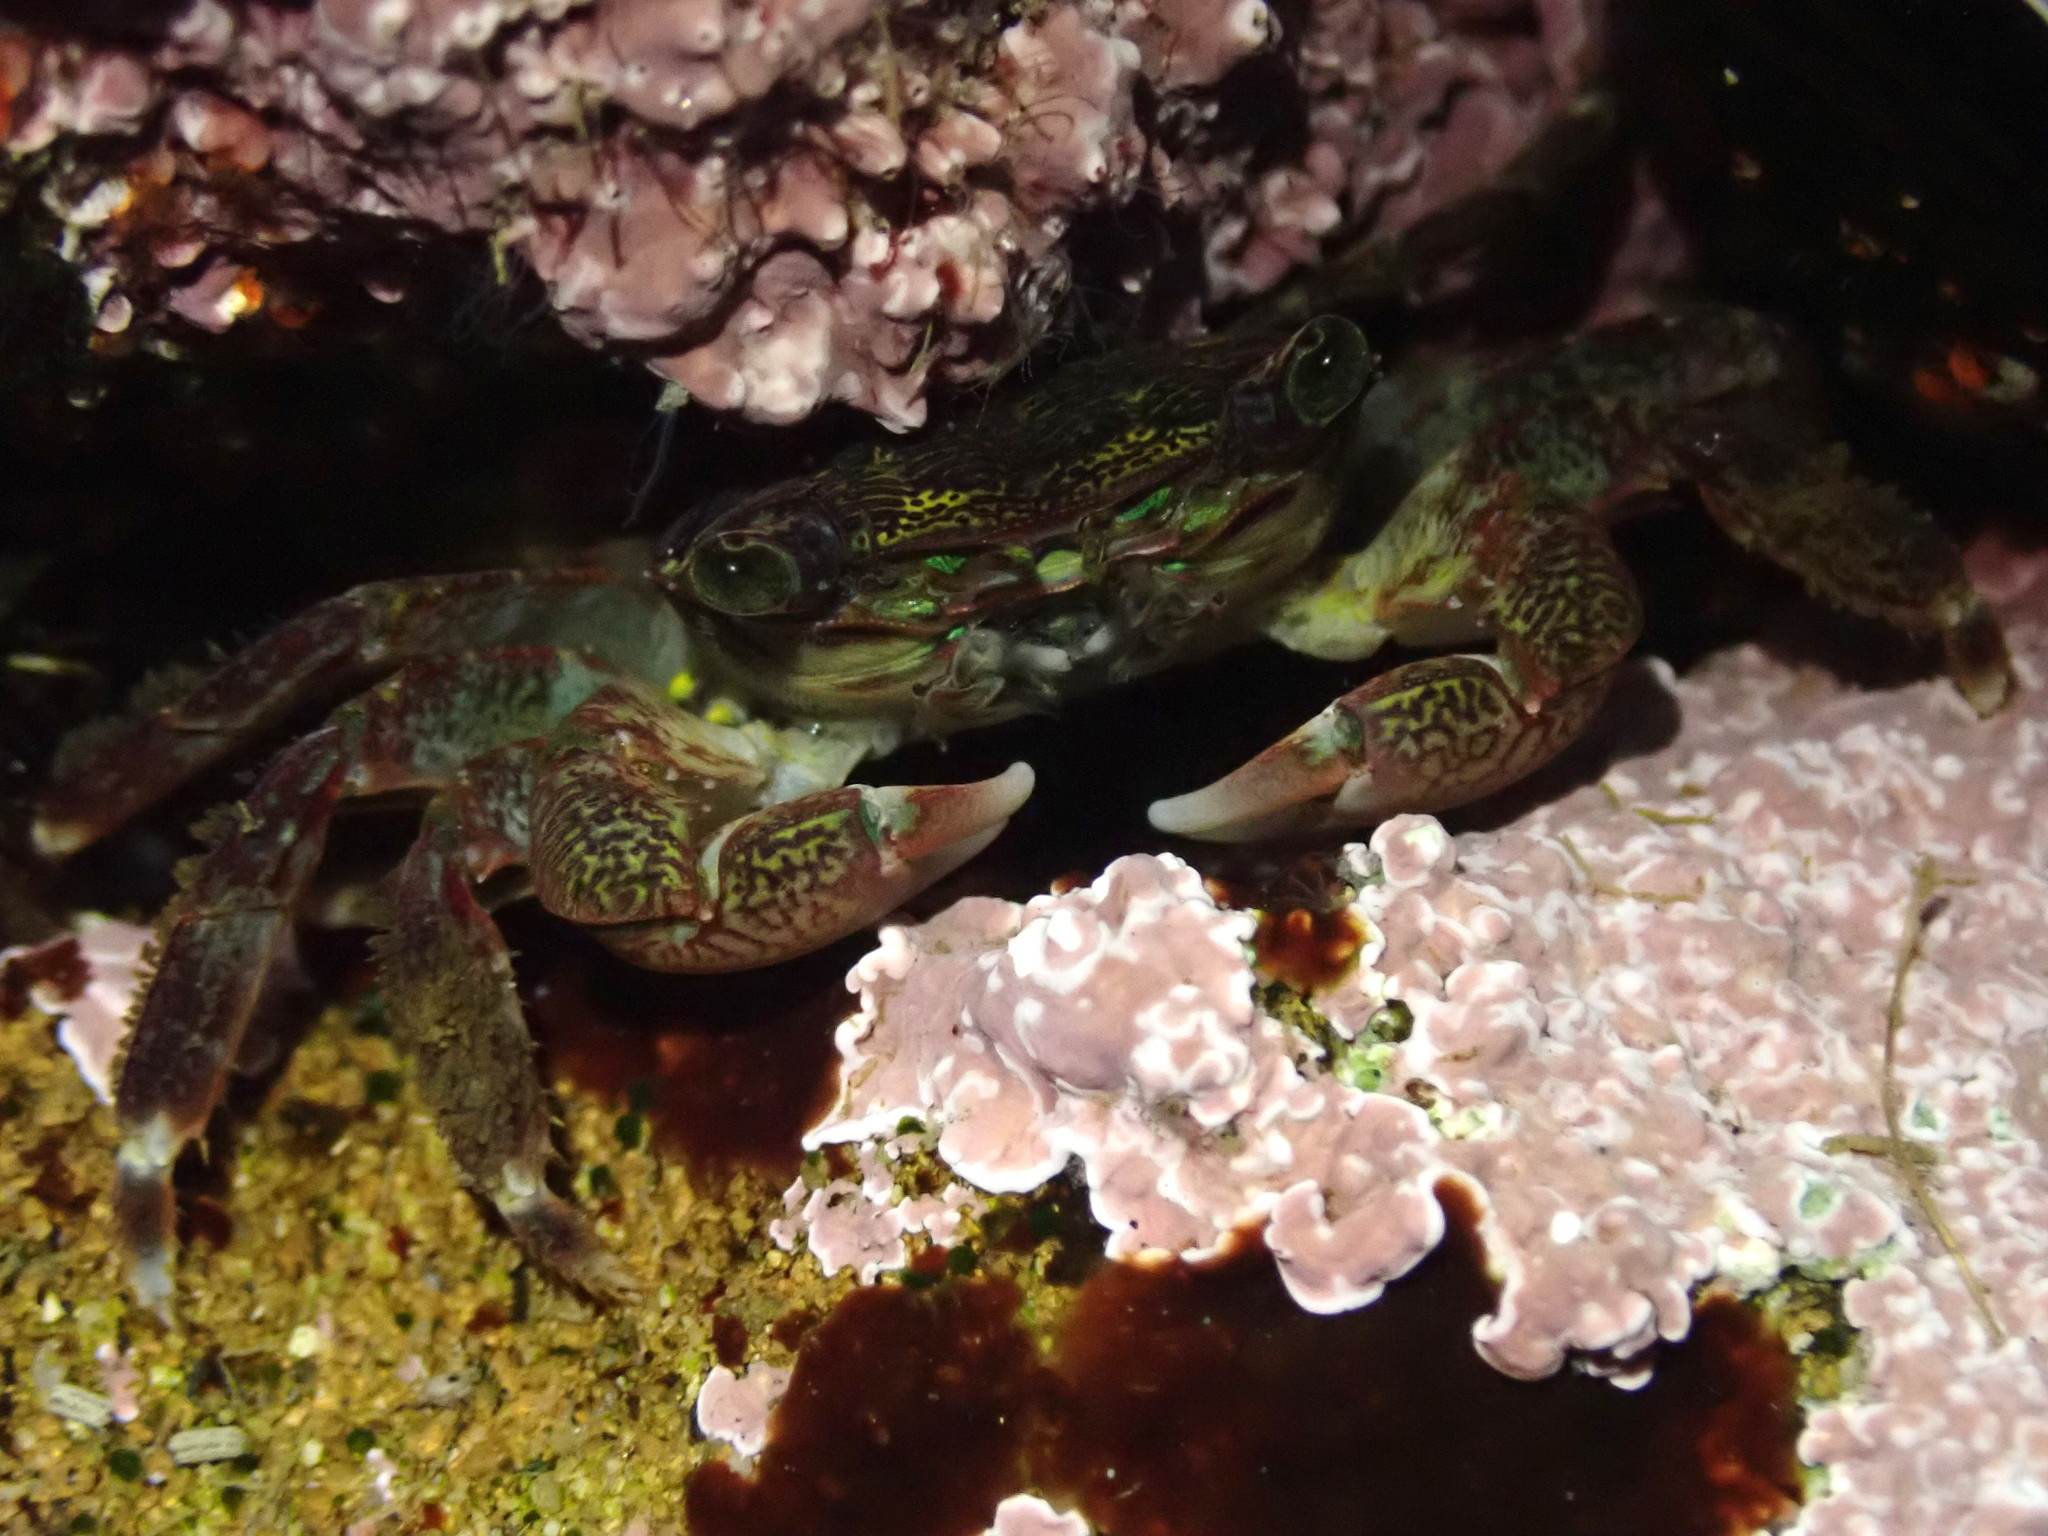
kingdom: Animalia
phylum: Arthropoda
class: Malacostraca
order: Decapoda
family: Grapsidae
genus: Pachygrapsus
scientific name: Pachygrapsus crassipes
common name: Striped shore crab
